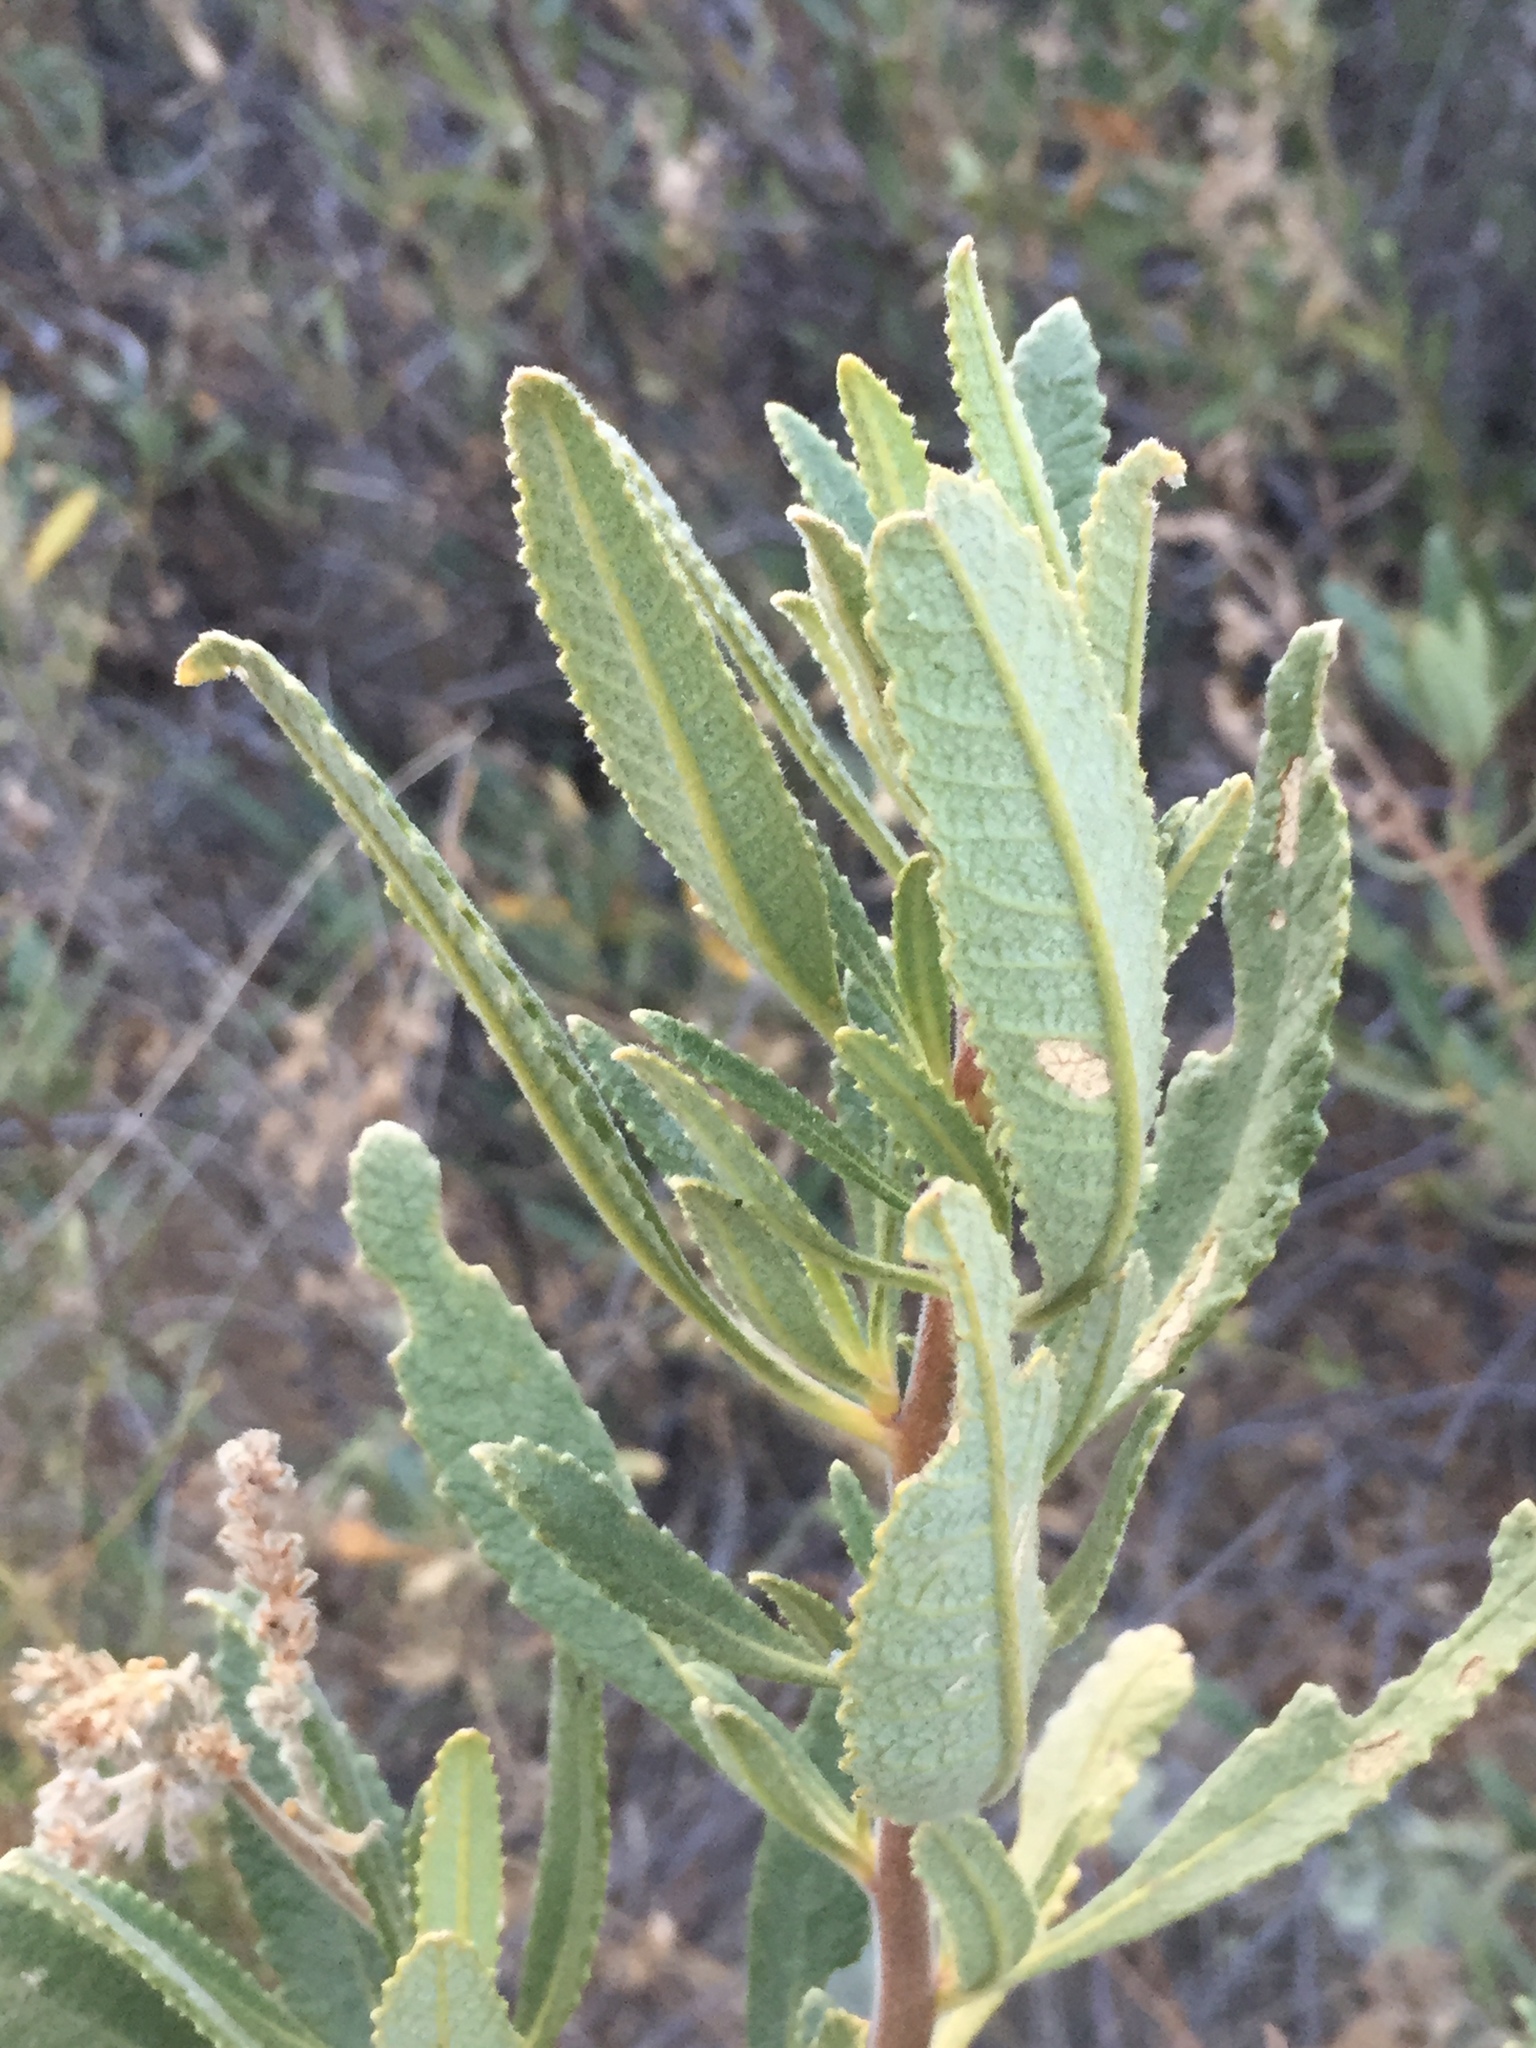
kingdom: Plantae
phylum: Tracheophyta
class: Magnoliopsida
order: Boraginales
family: Namaceae
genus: Eriodictyon
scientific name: Eriodictyon crassifolium
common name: Thick-leaf yerba-santa
